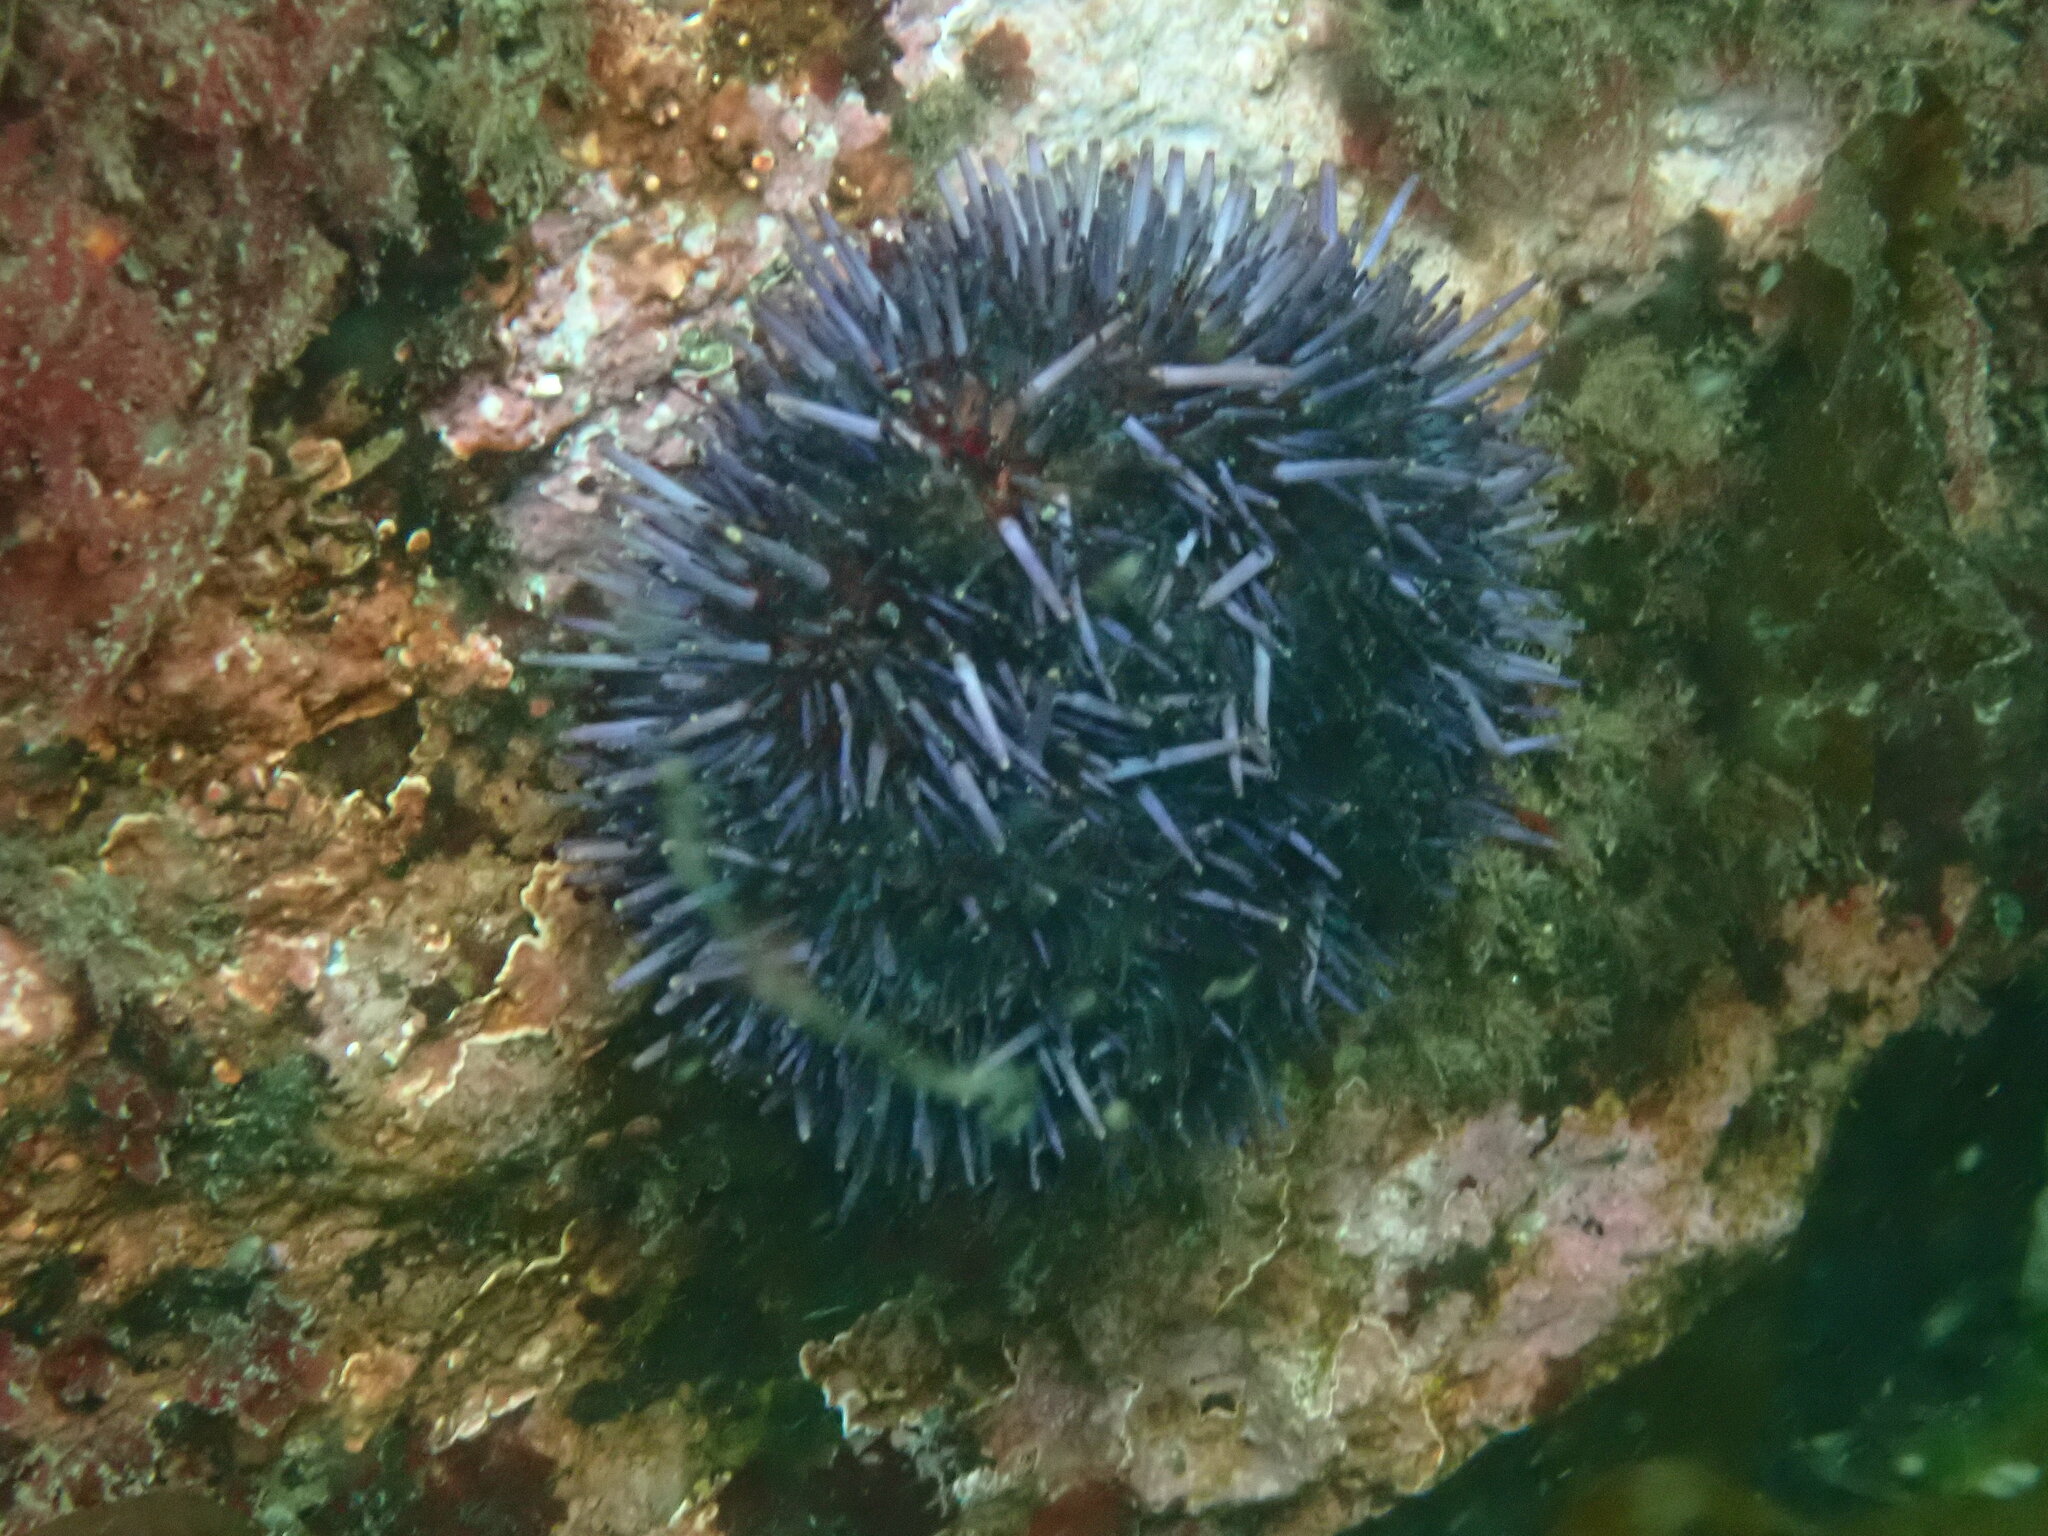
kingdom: Animalia
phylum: Echinodermata
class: Echinoidea
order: Camarodonta
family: Strongylocentrotidae
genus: Strongylocentrotus
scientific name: Strongylocentrotus purpuratus
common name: Purple sea urchin
